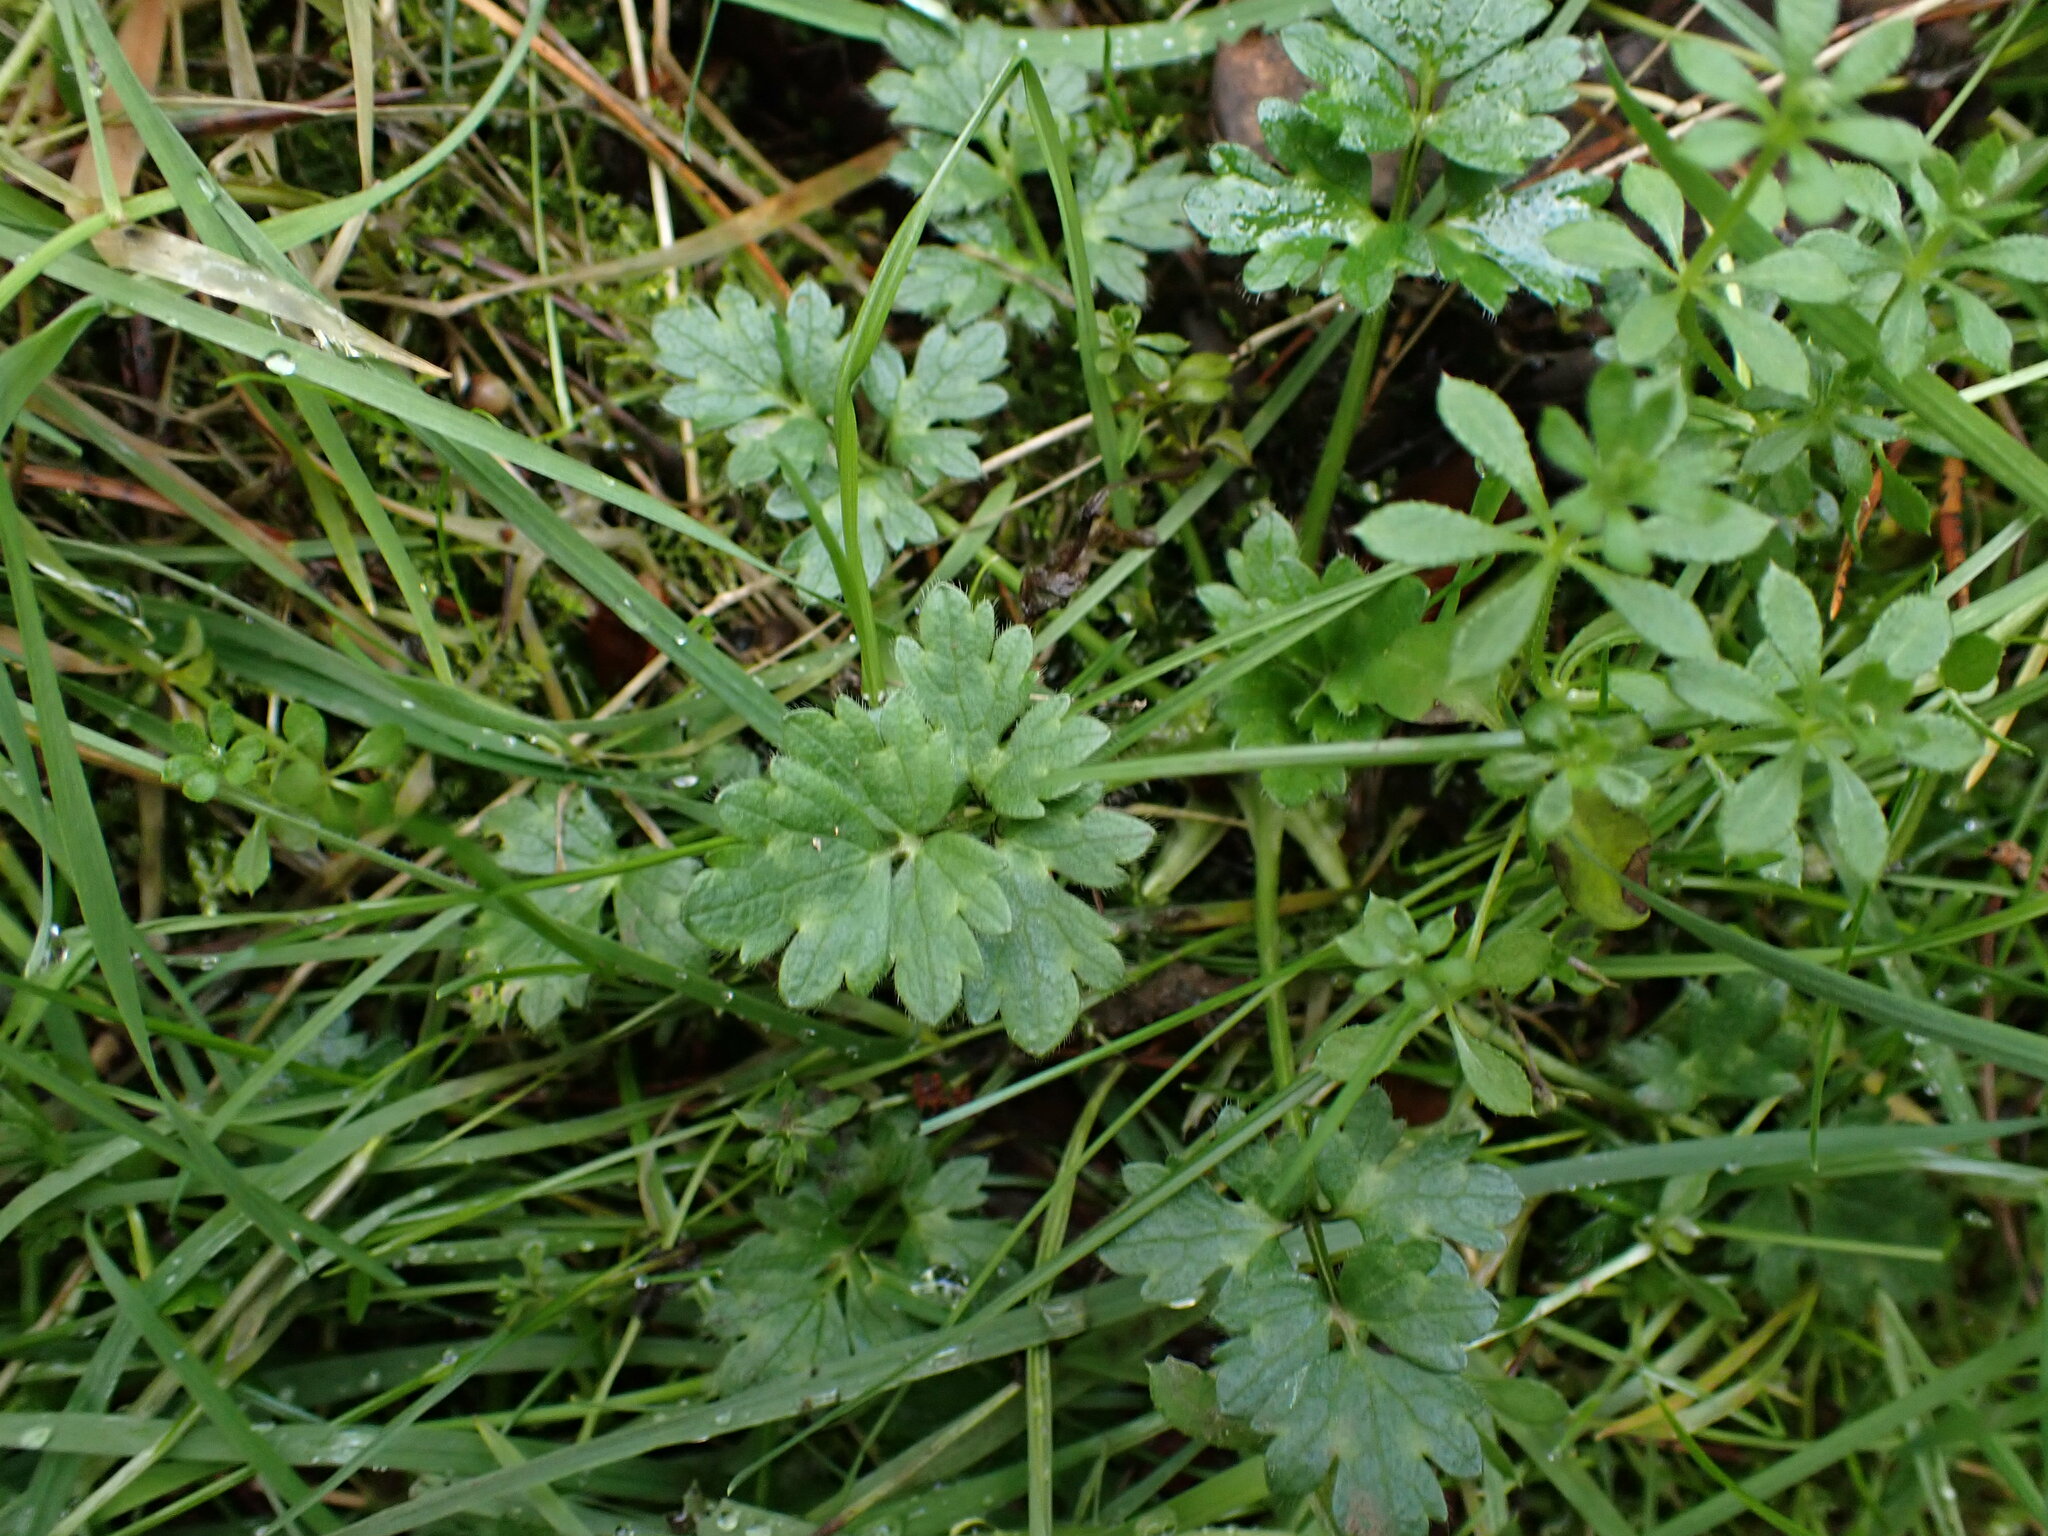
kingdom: Plantae
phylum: Tracheophyta
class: Magnoliopsida
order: Ranunculales
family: Ranunculaceae
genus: Ranunculus
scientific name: Ranunculus repens
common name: Creeping buttercup
